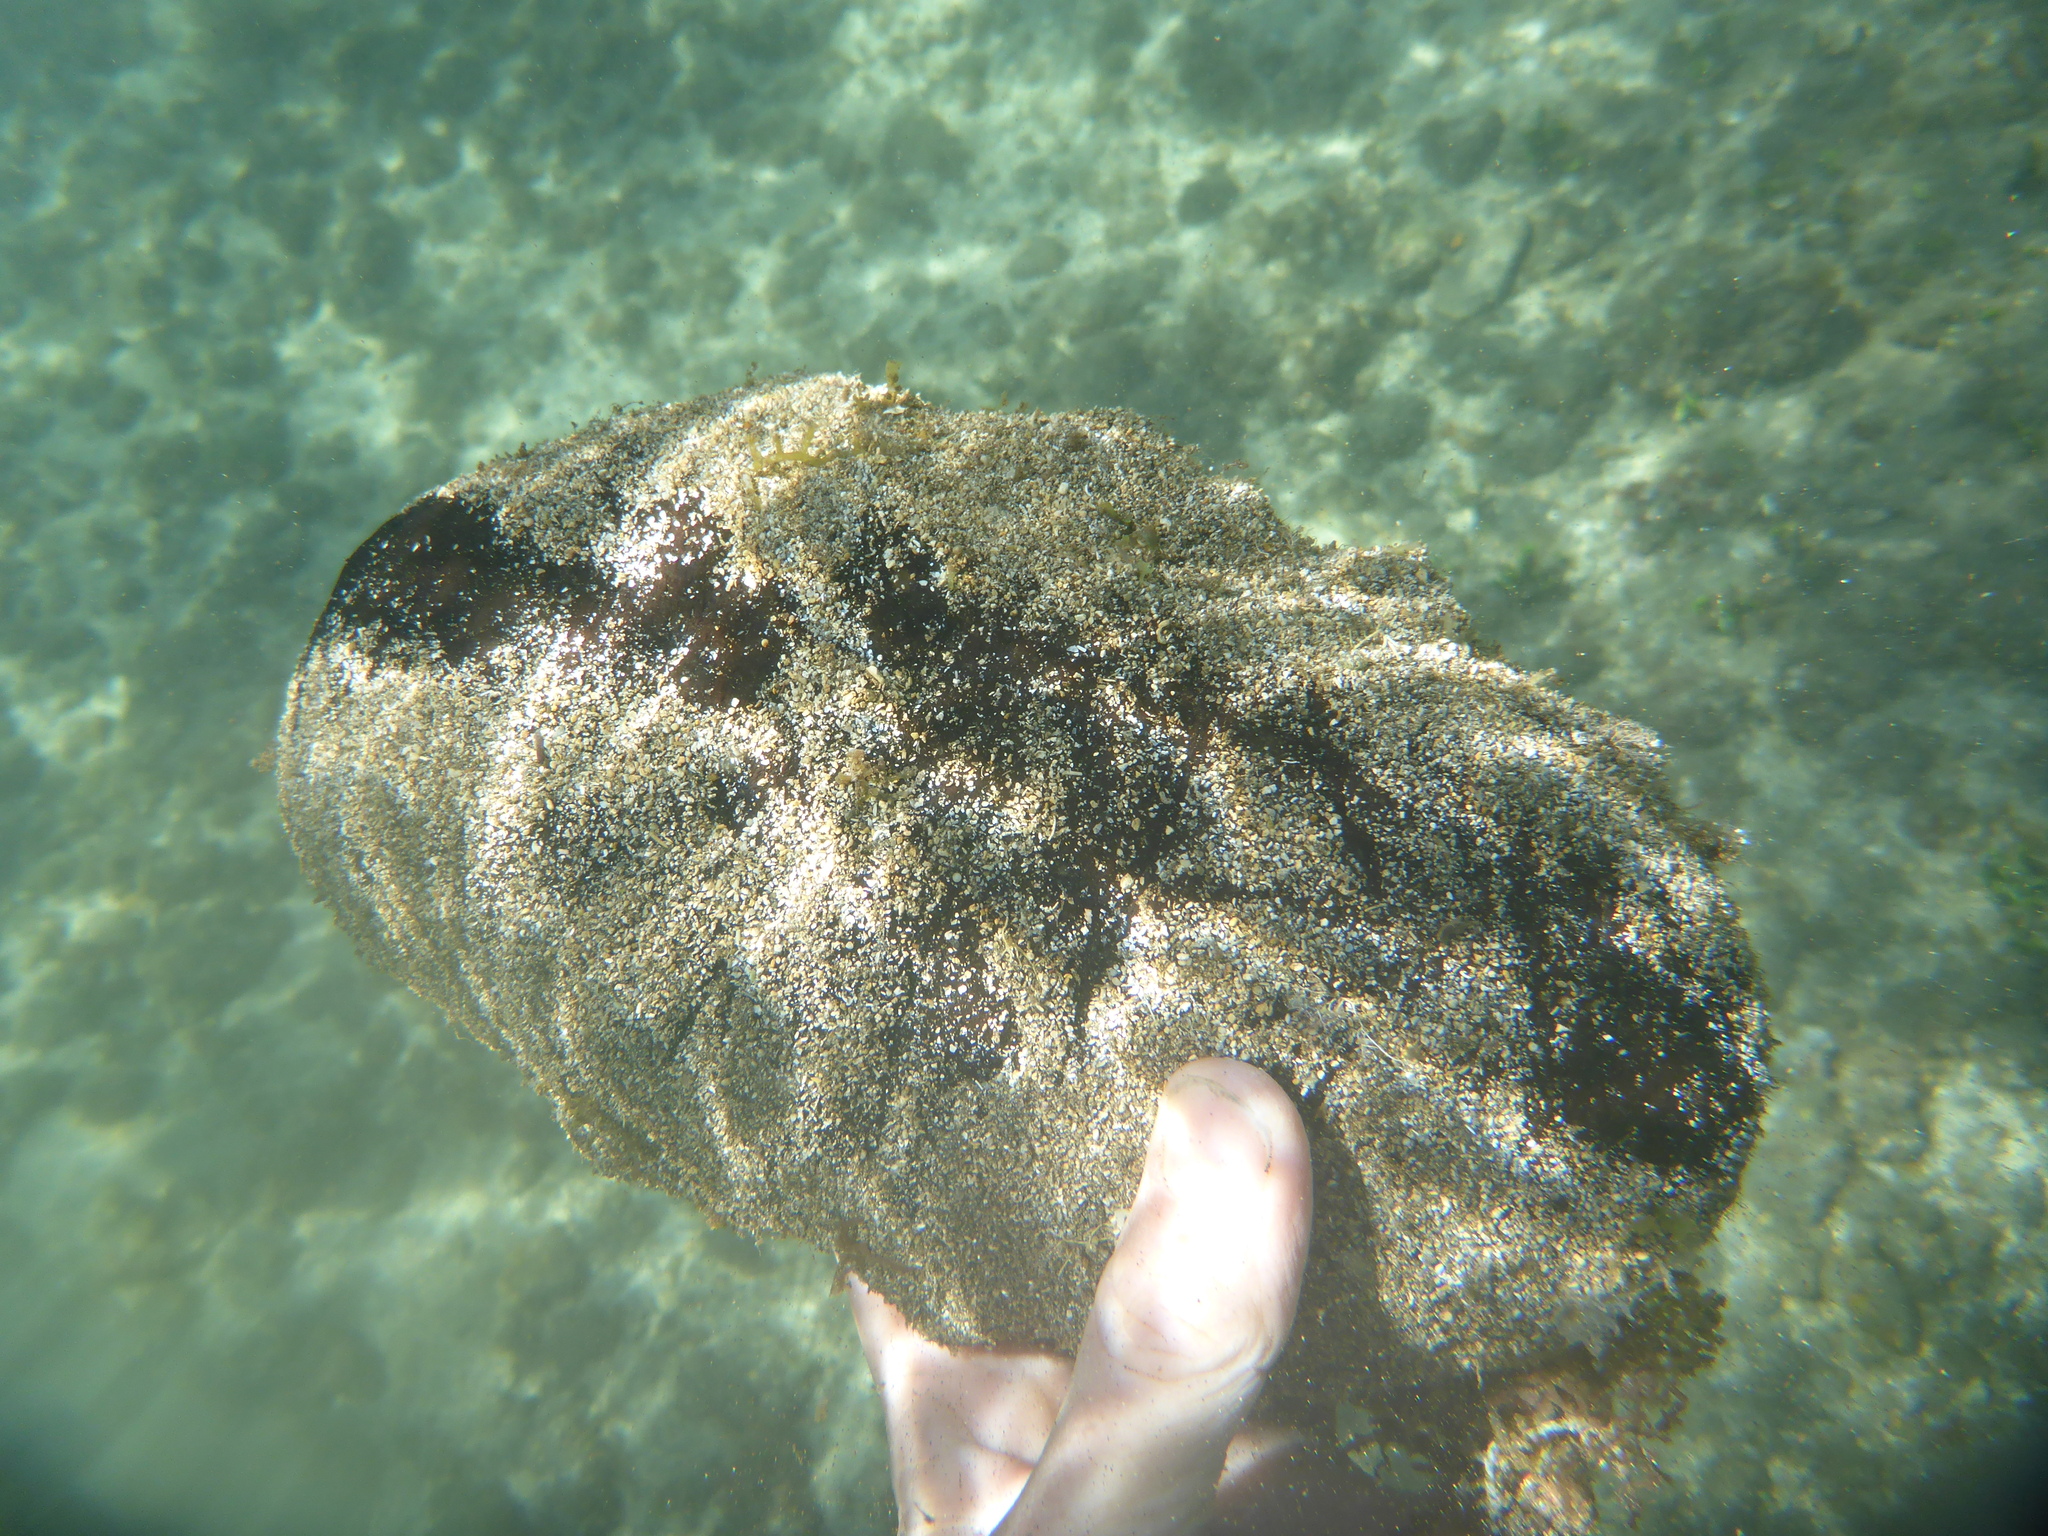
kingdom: Animalia
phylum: Echinodermata
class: Holothuroidea
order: Holothuriida
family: Holothuriidae
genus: Holothuria
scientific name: Holothuria whitmaei
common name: Black teatfish
